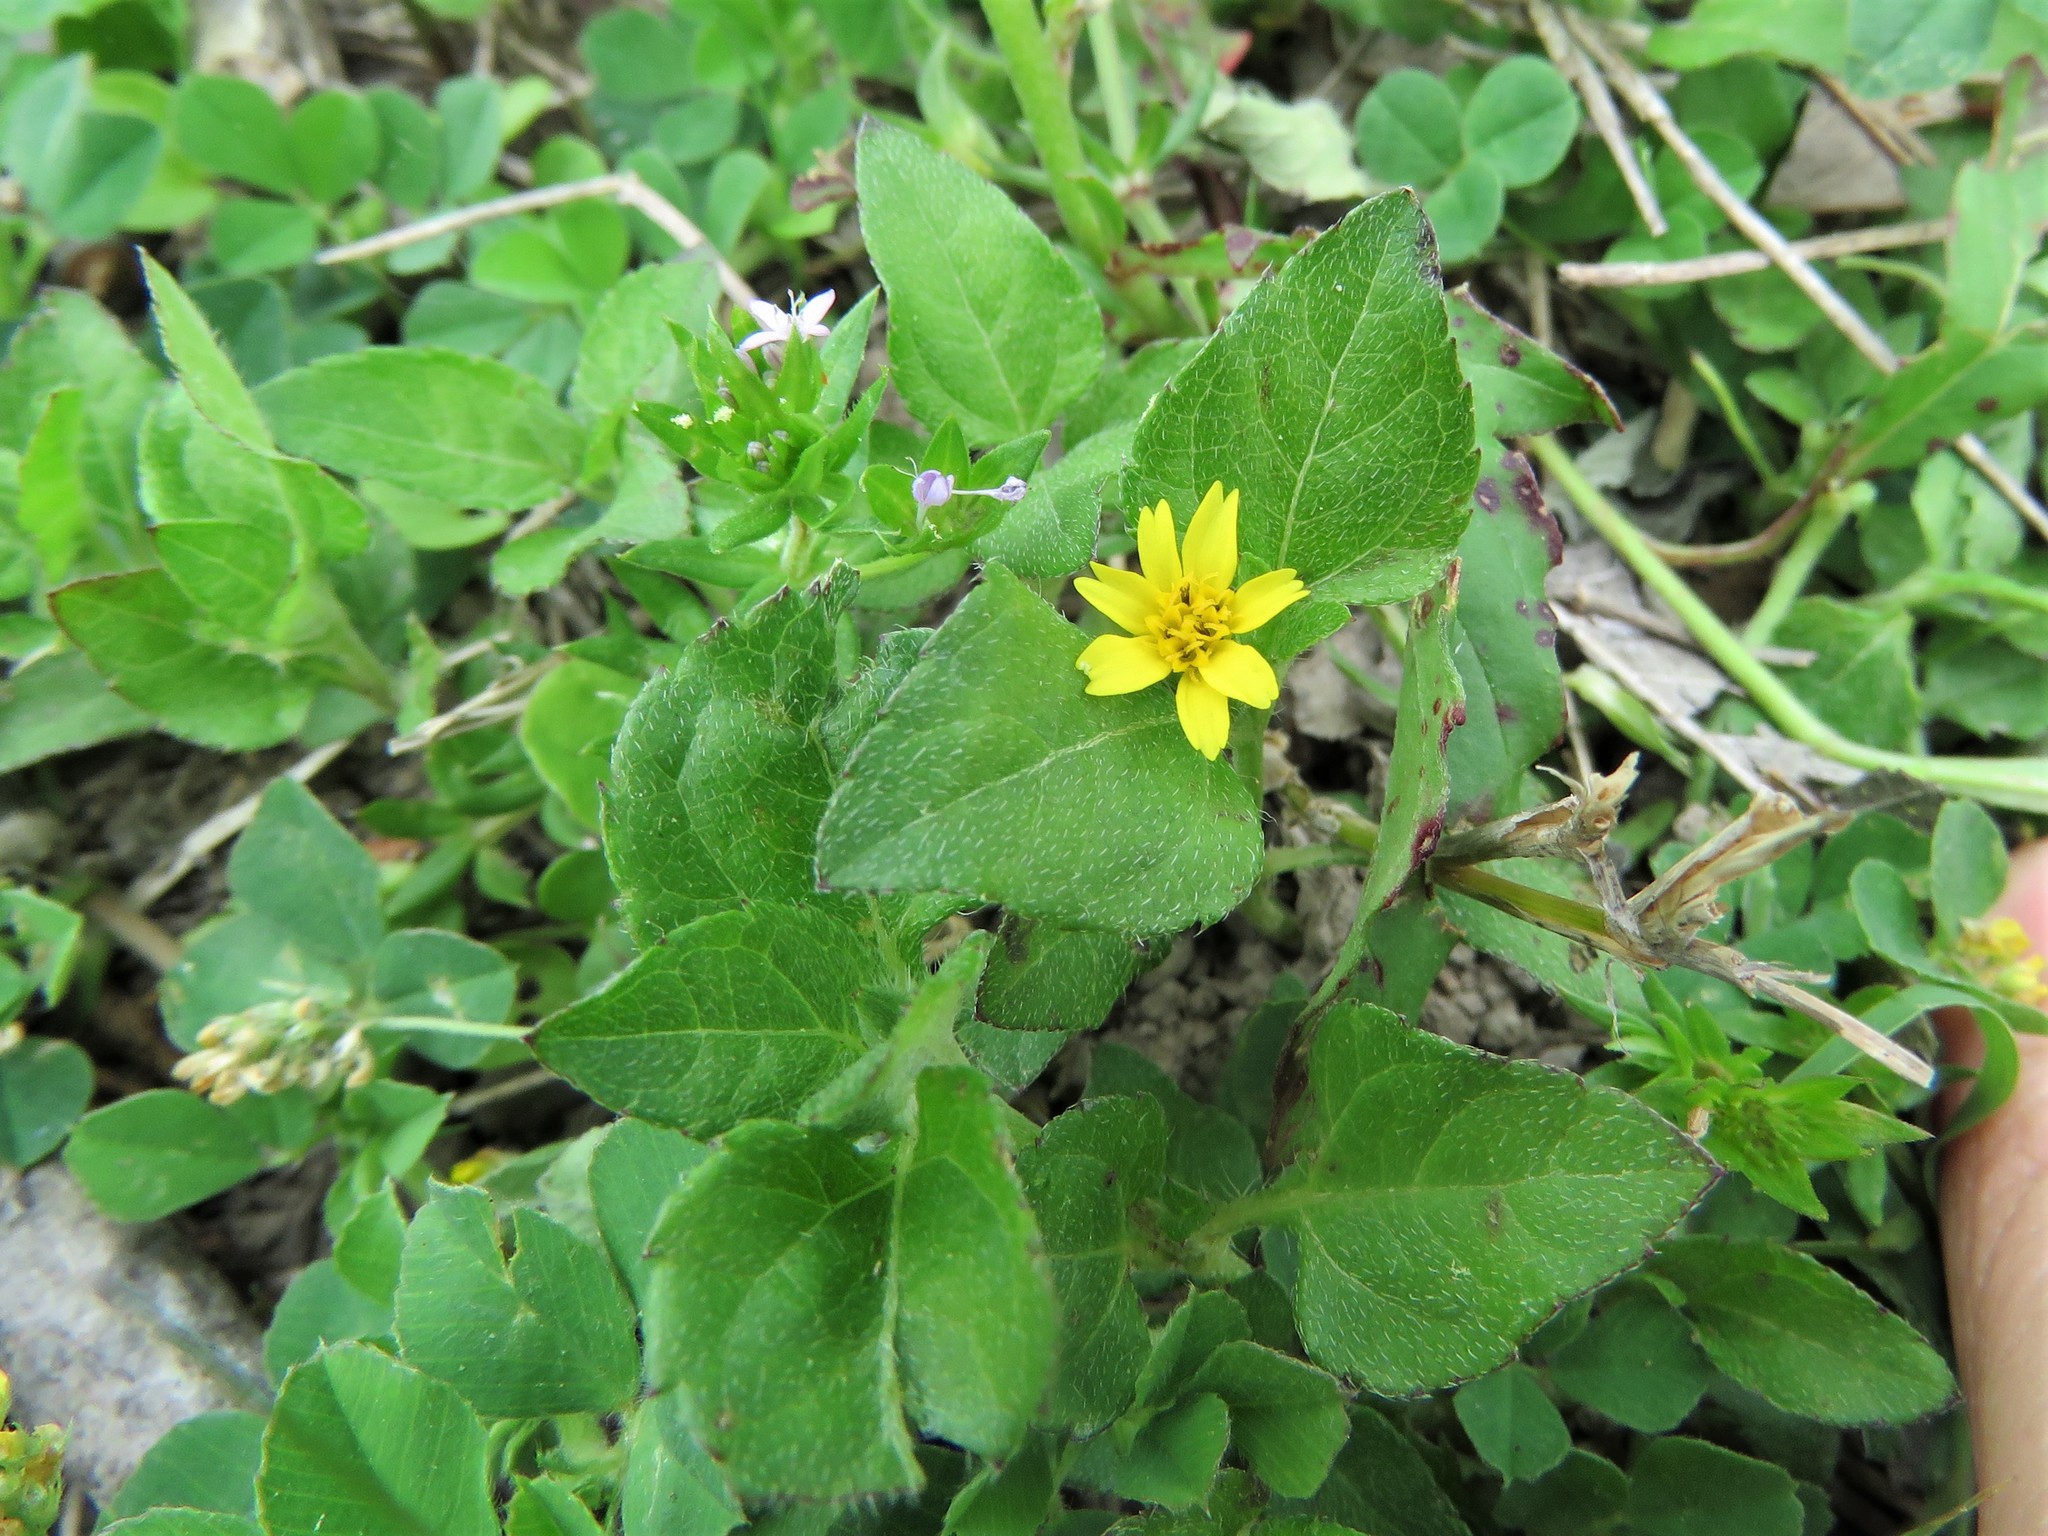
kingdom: Plantae
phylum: Tracheophyta
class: Magnoliopsida
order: Asterales
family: Asteraceae
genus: Calyptocarpus
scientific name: Calyptocarpus vialis
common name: Straggler daisy
